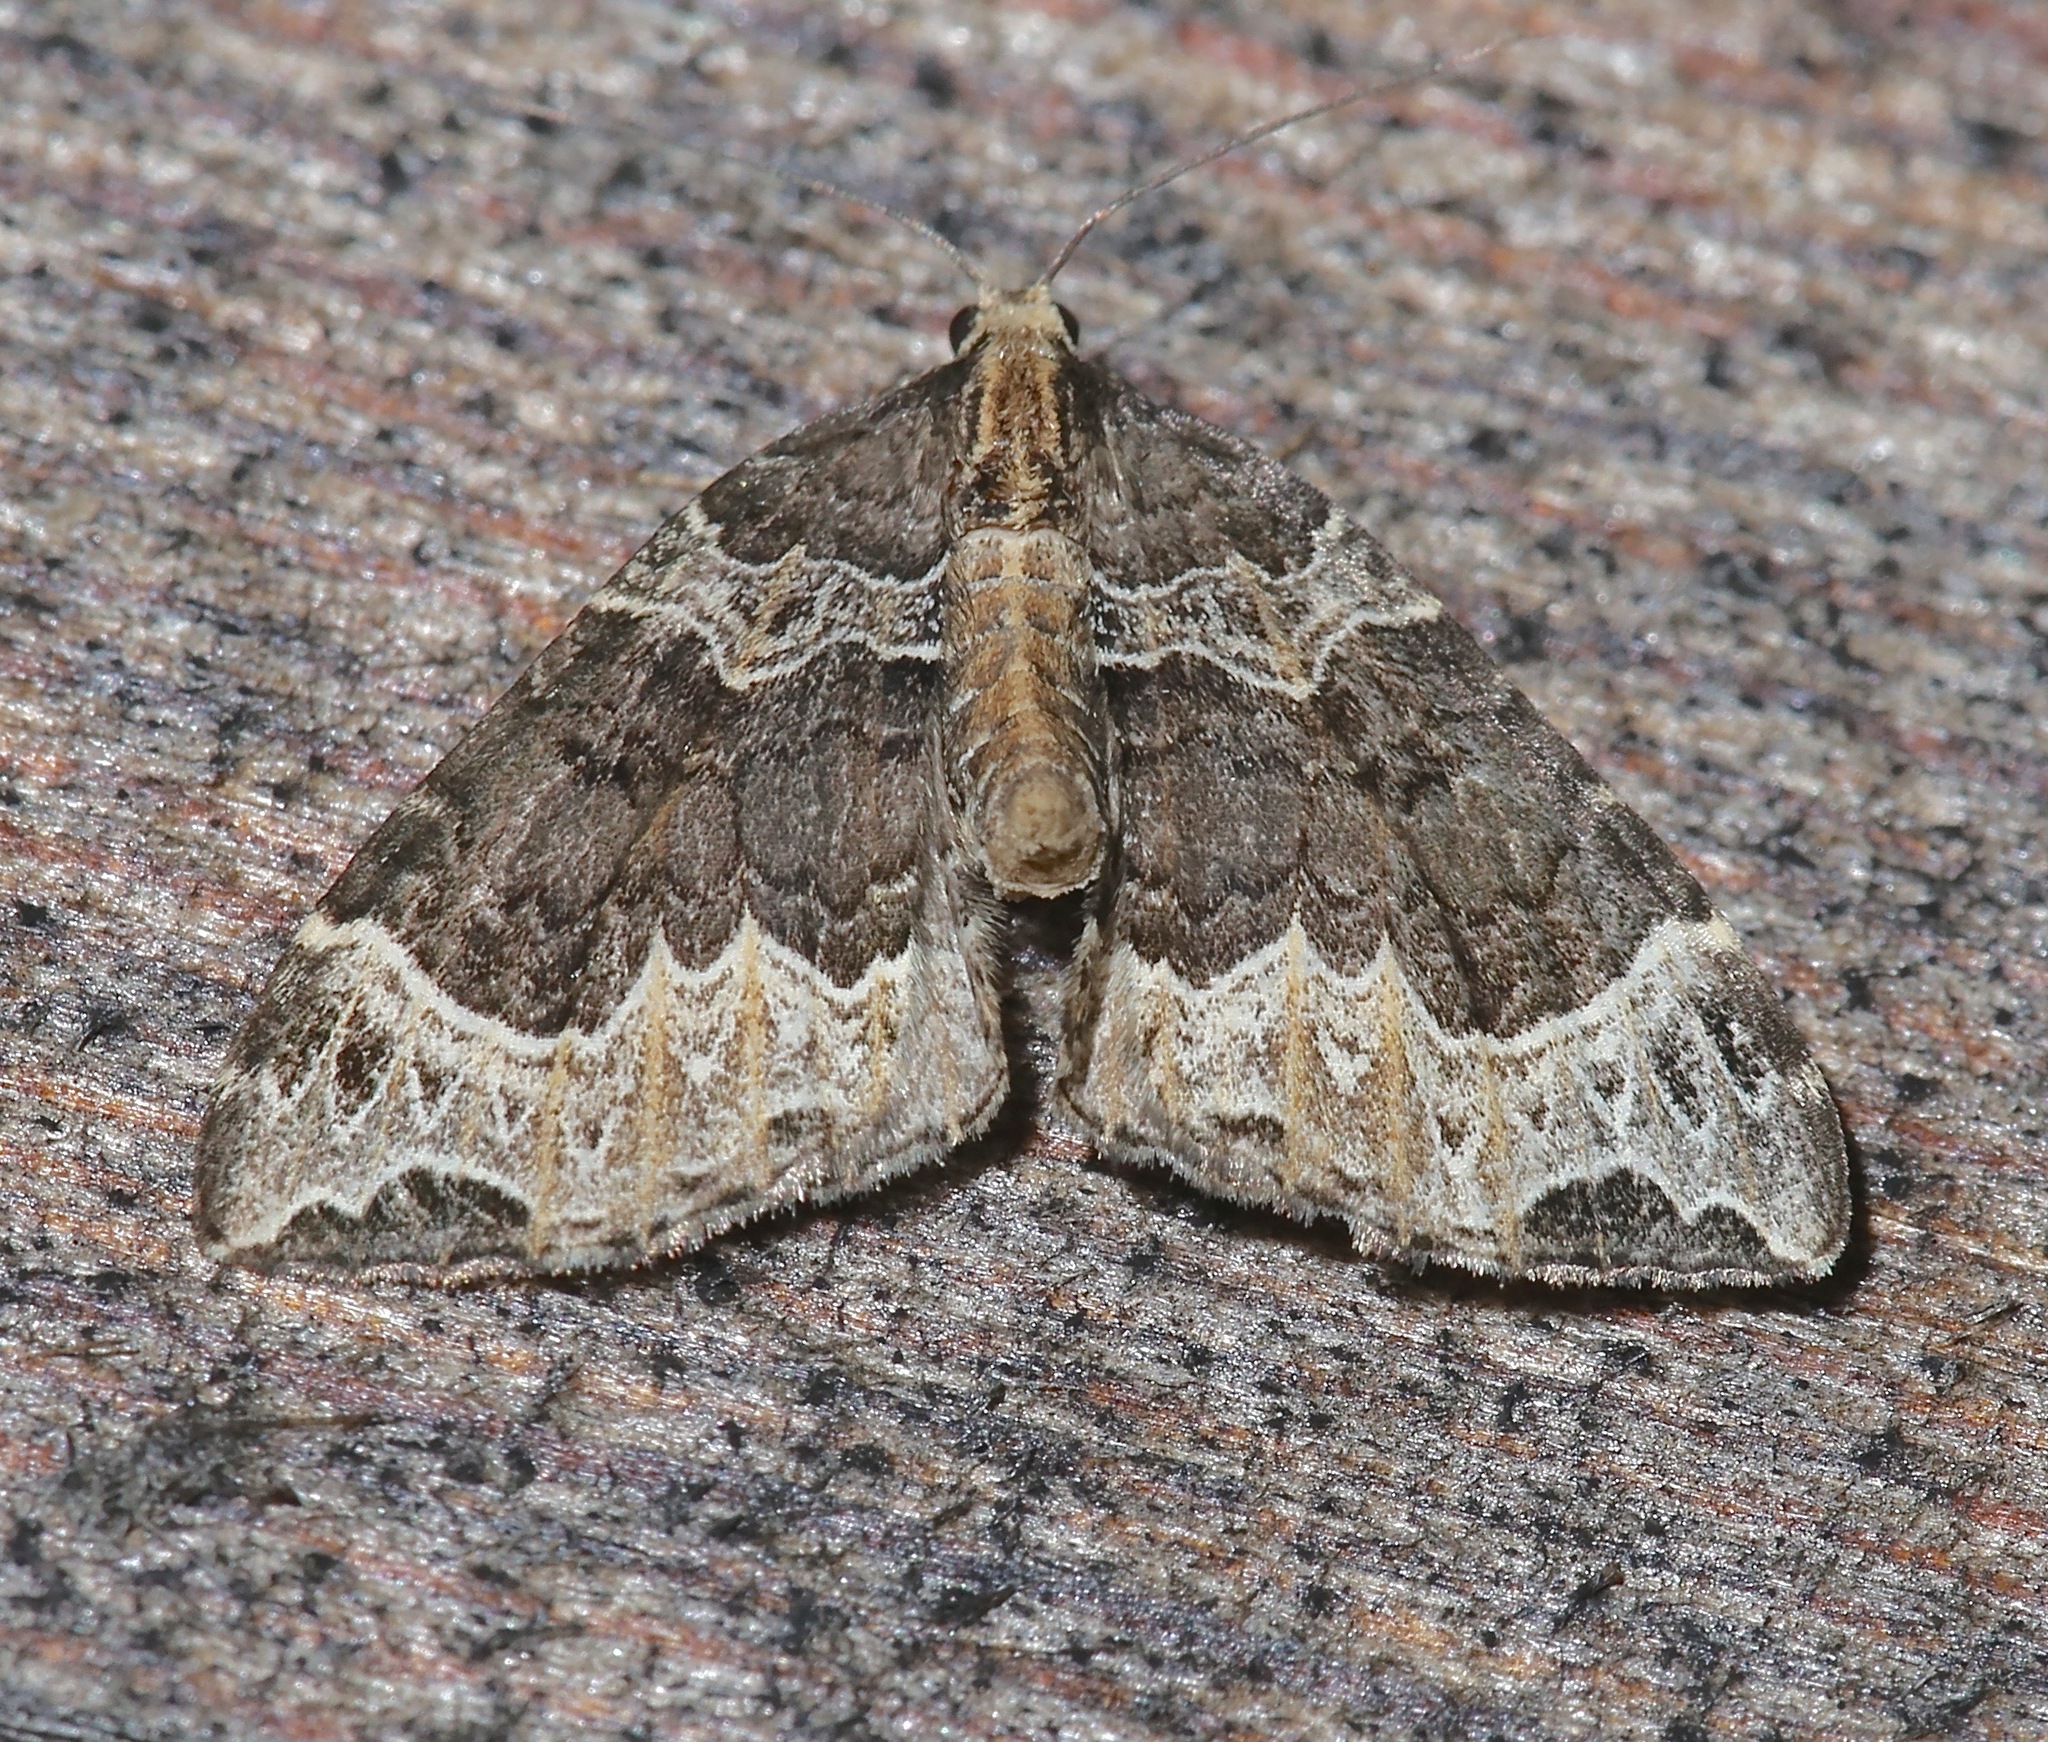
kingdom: Animalia
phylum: Arthropoda
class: Insecta
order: Lepidoptera
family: Geometridae
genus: Ecliptopera
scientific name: Ecliptopera silaceata
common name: Small phoenix
